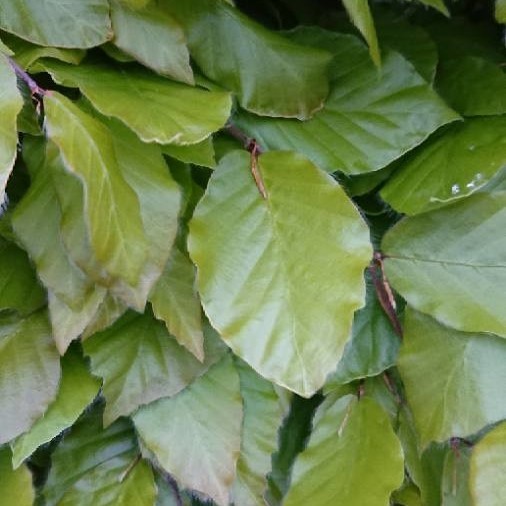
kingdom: Plantae
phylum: Tracheophyta
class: Magnoliopsida
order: Fagales
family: Fagaceae
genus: Fagus
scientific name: Fagus sylvatica
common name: Beech
